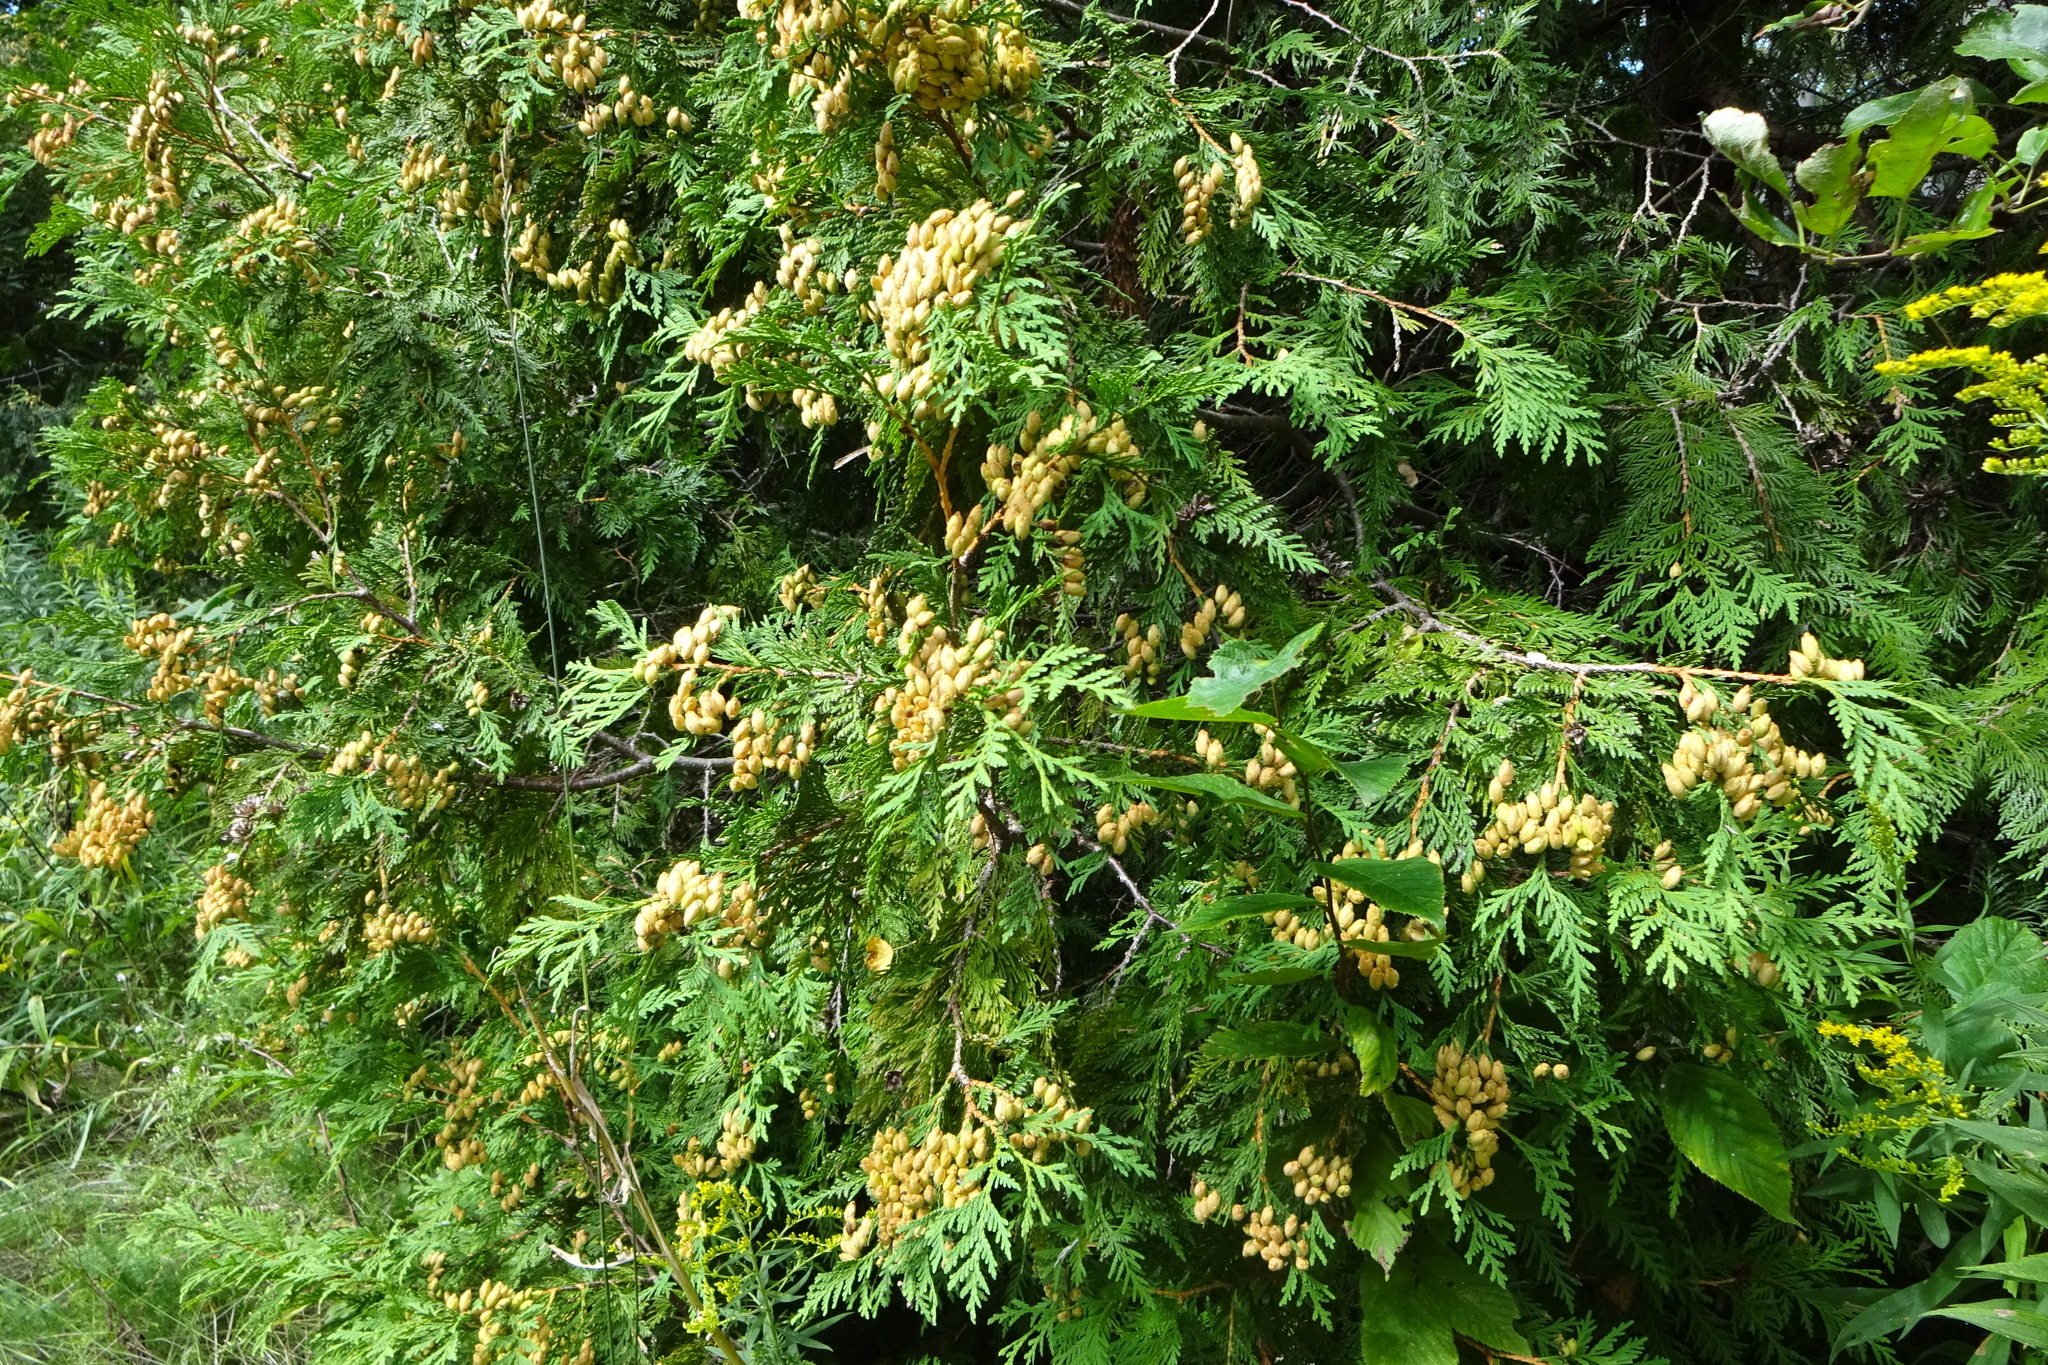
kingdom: Plantae
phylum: Tracheophyta
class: Pinopsida
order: Pinales
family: Cupressaceae
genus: Thuja
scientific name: Thuja occidentalis
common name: Northern white-cedar
